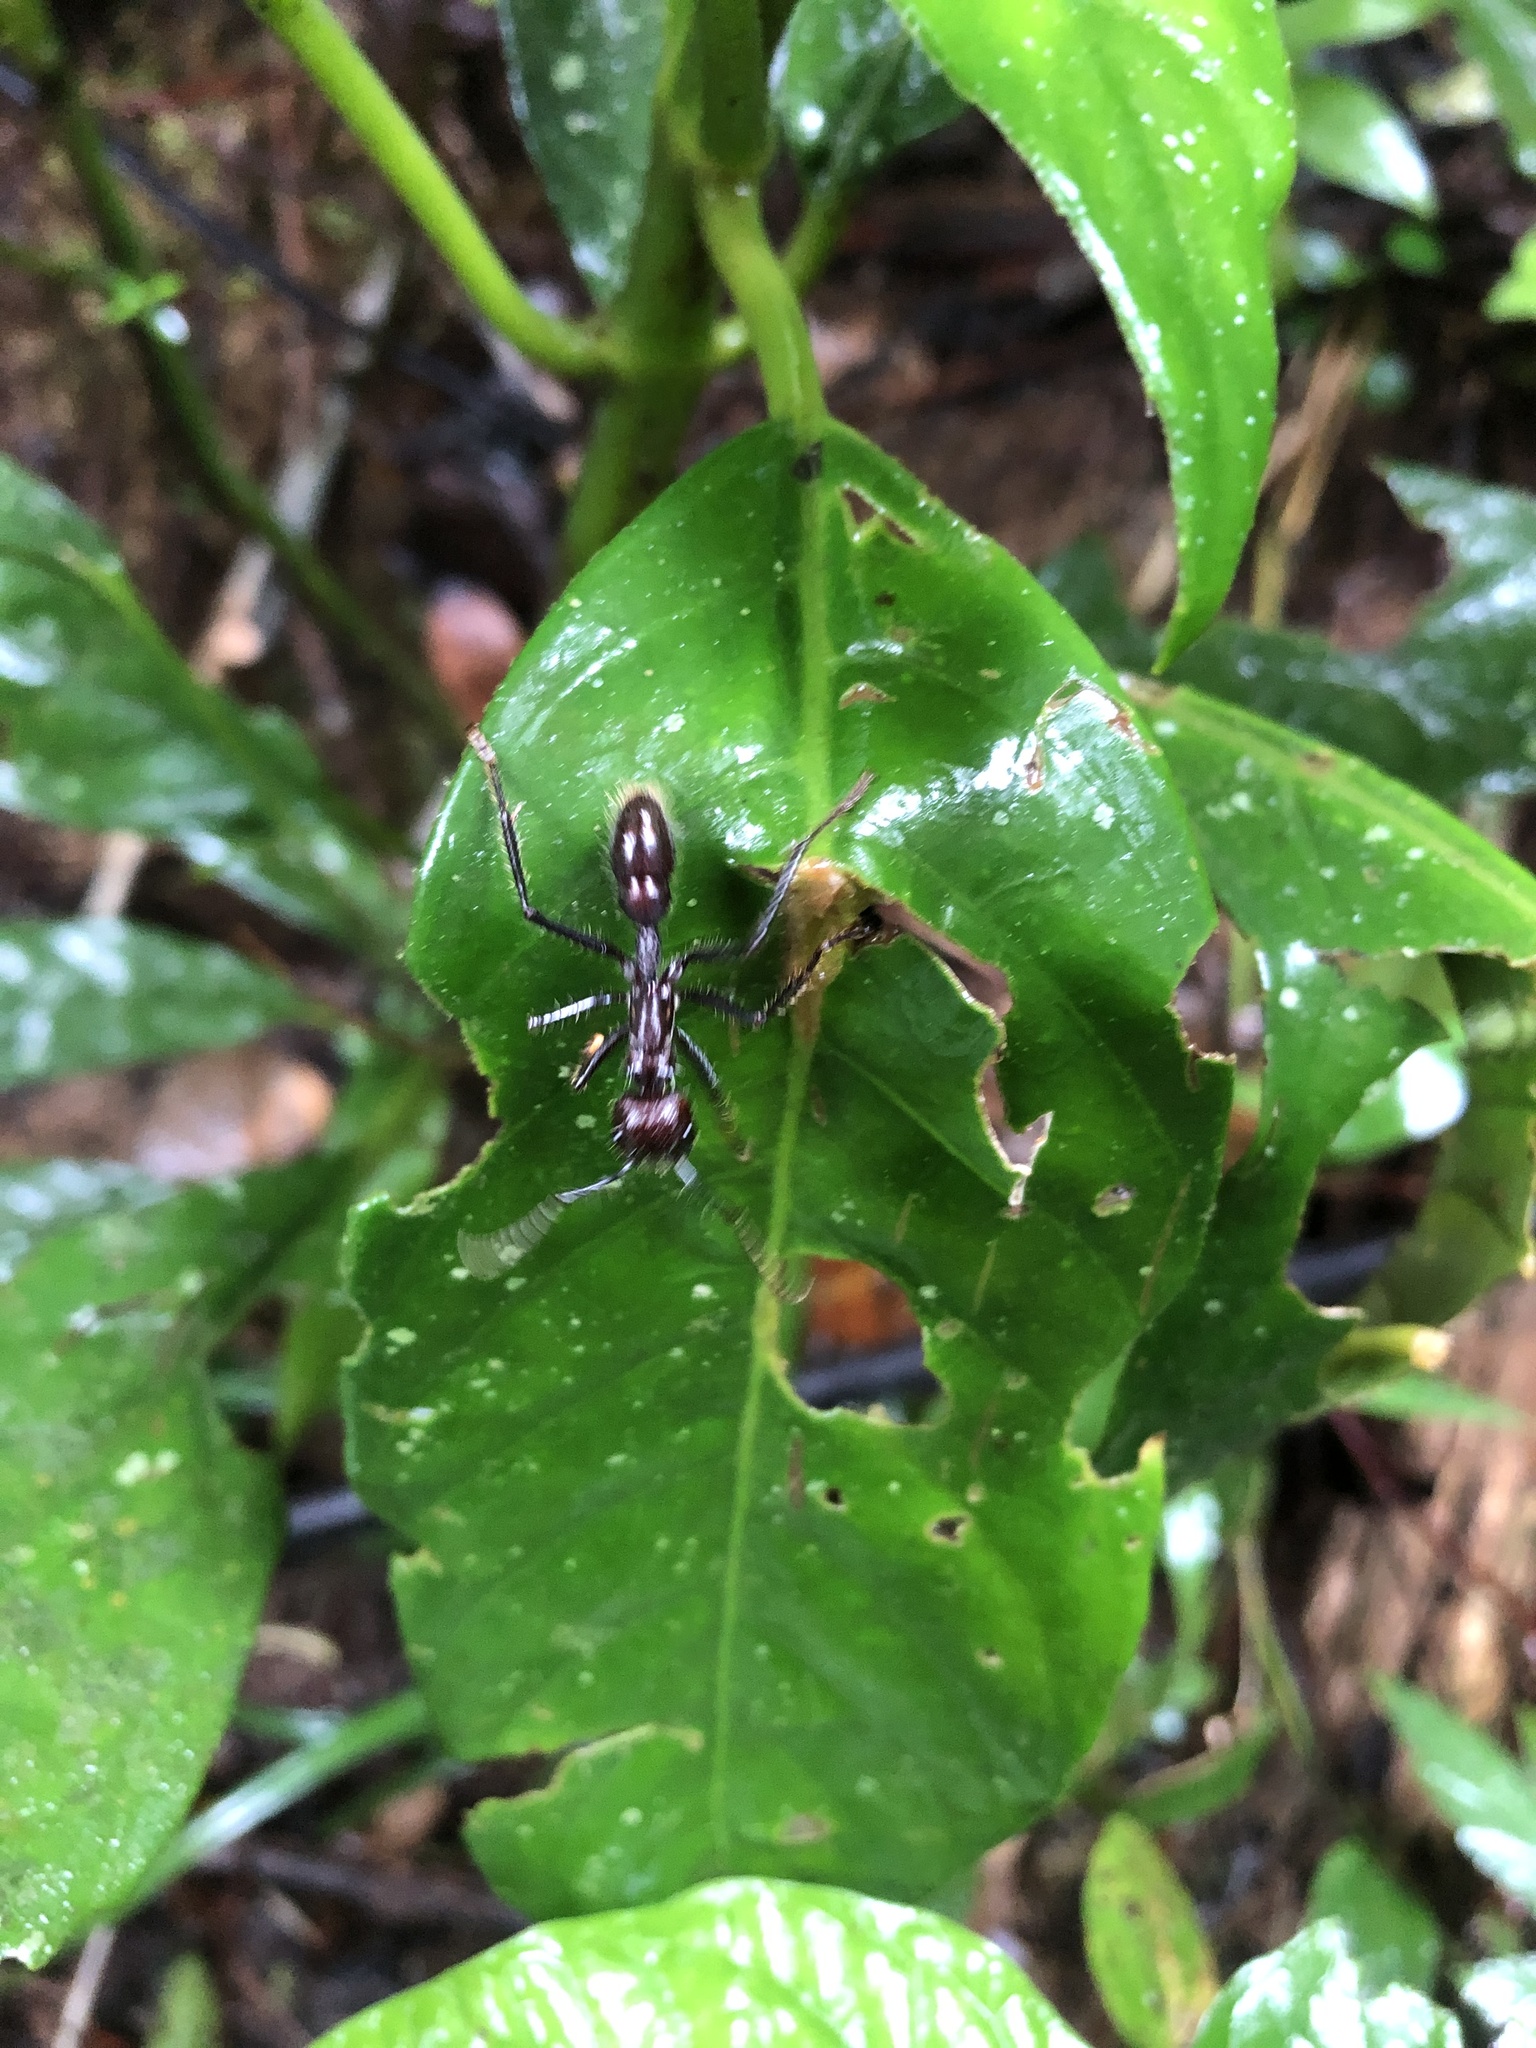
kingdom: Animalia
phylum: Arthropoda
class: Insecta
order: Hymenoptera
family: Formicidae
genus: Paraponera
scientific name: Paraponera clavata
